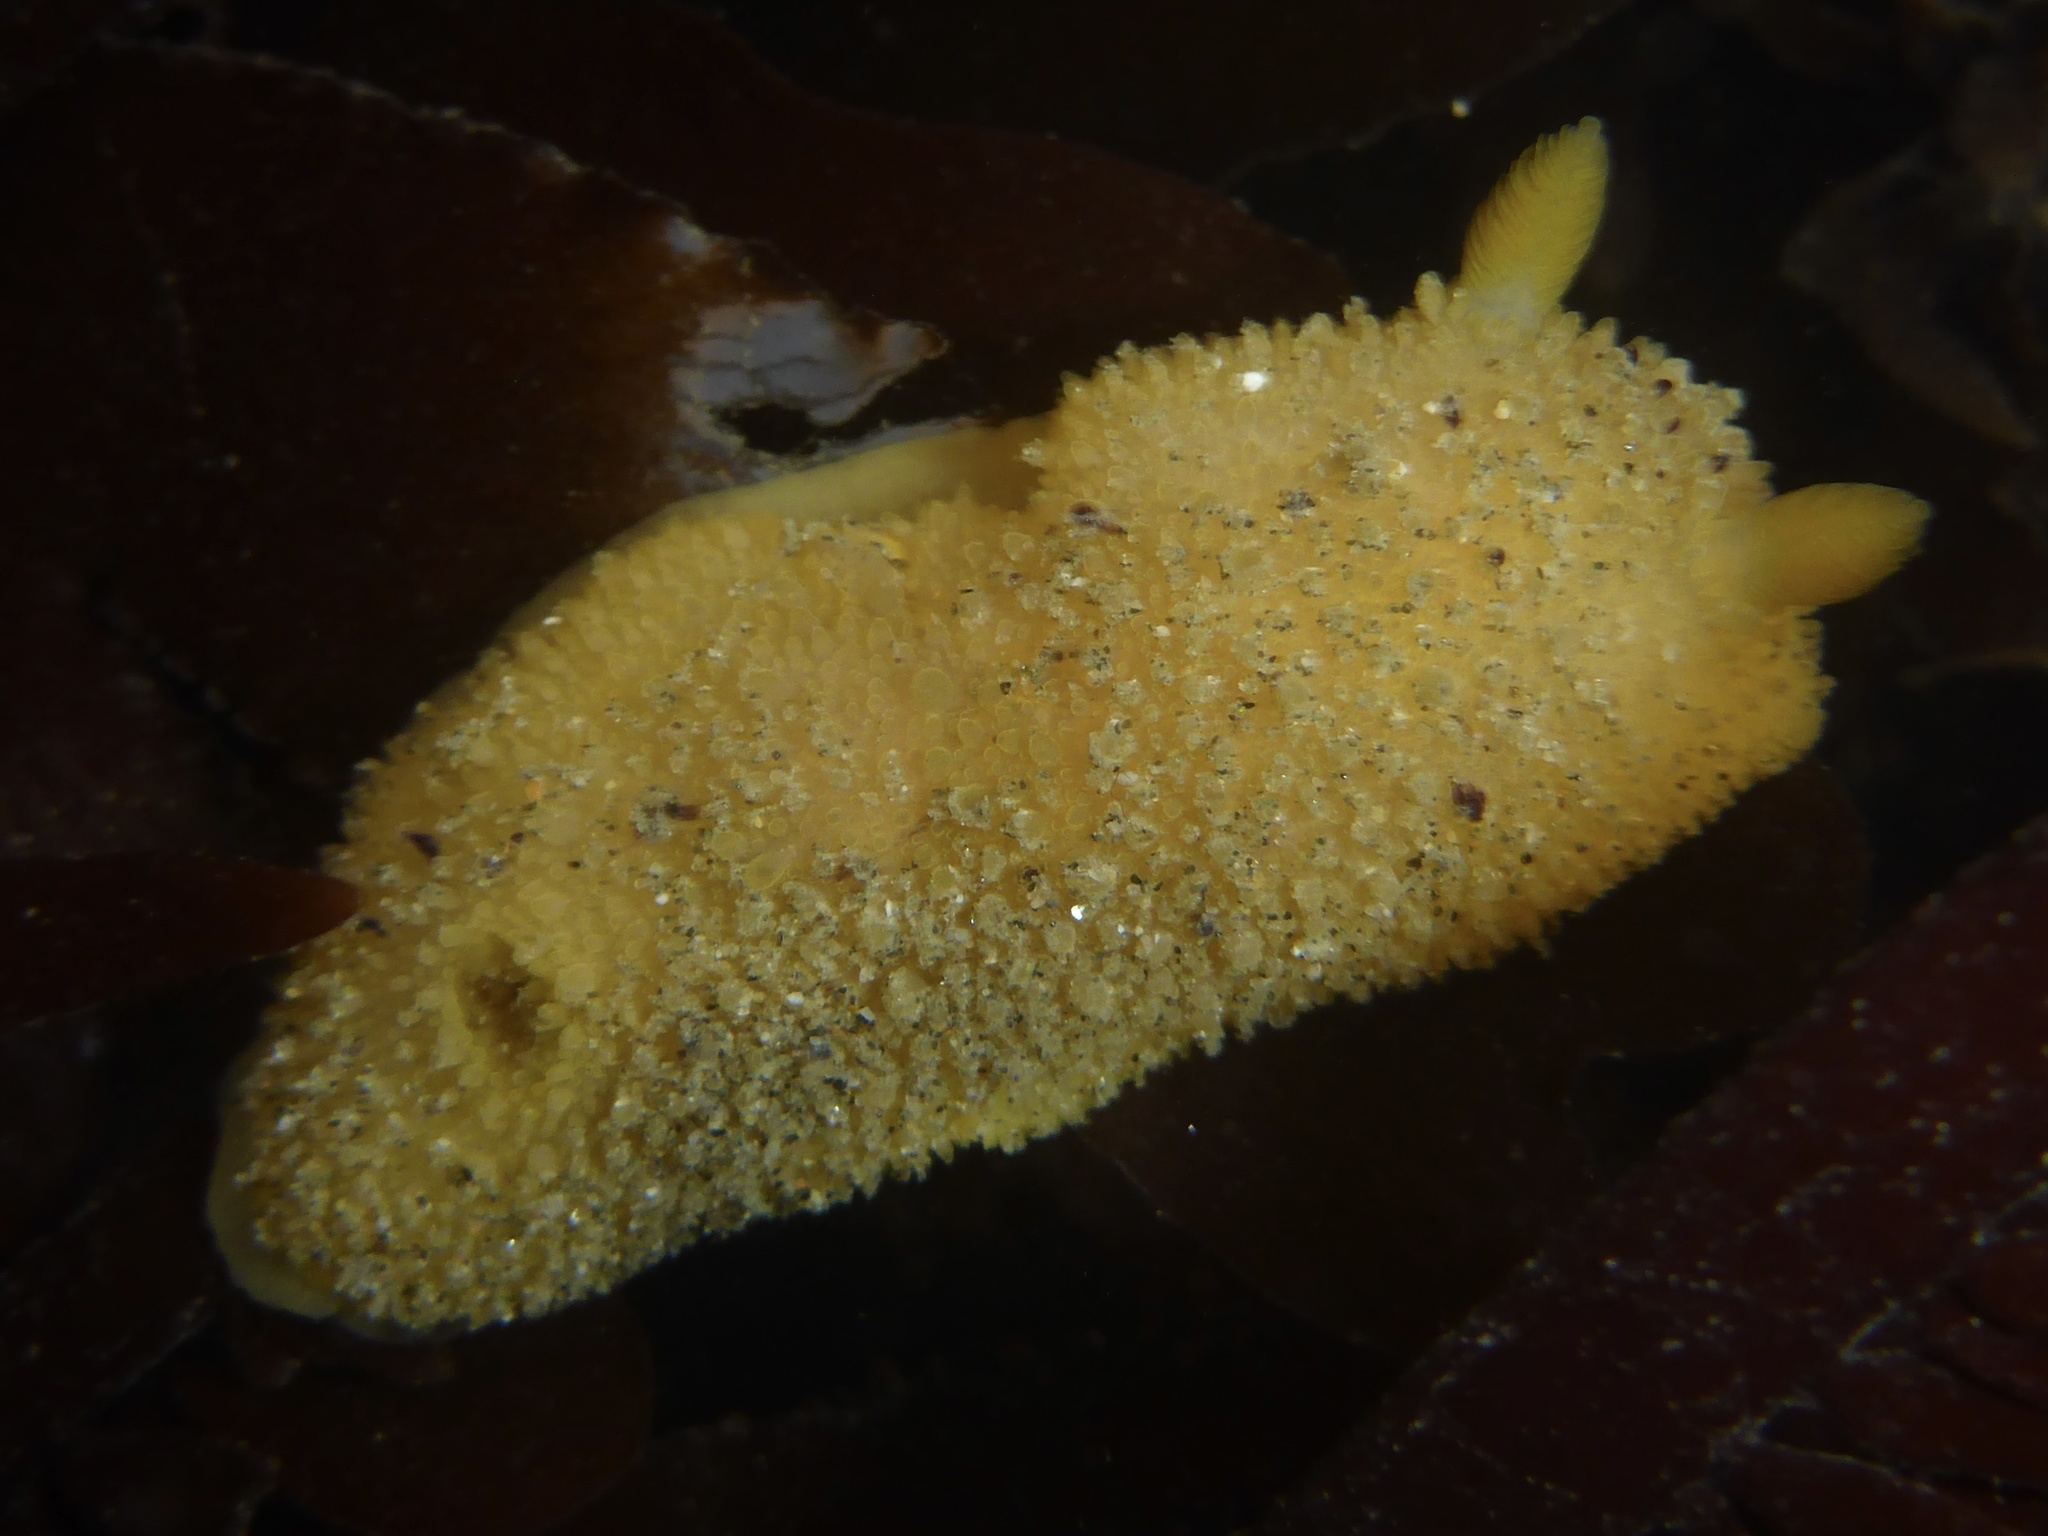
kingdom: Animalia
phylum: Mollusca
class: Gastropoda
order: Nudibranchia
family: Dorididae
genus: Doris
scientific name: Doris montereyensis
